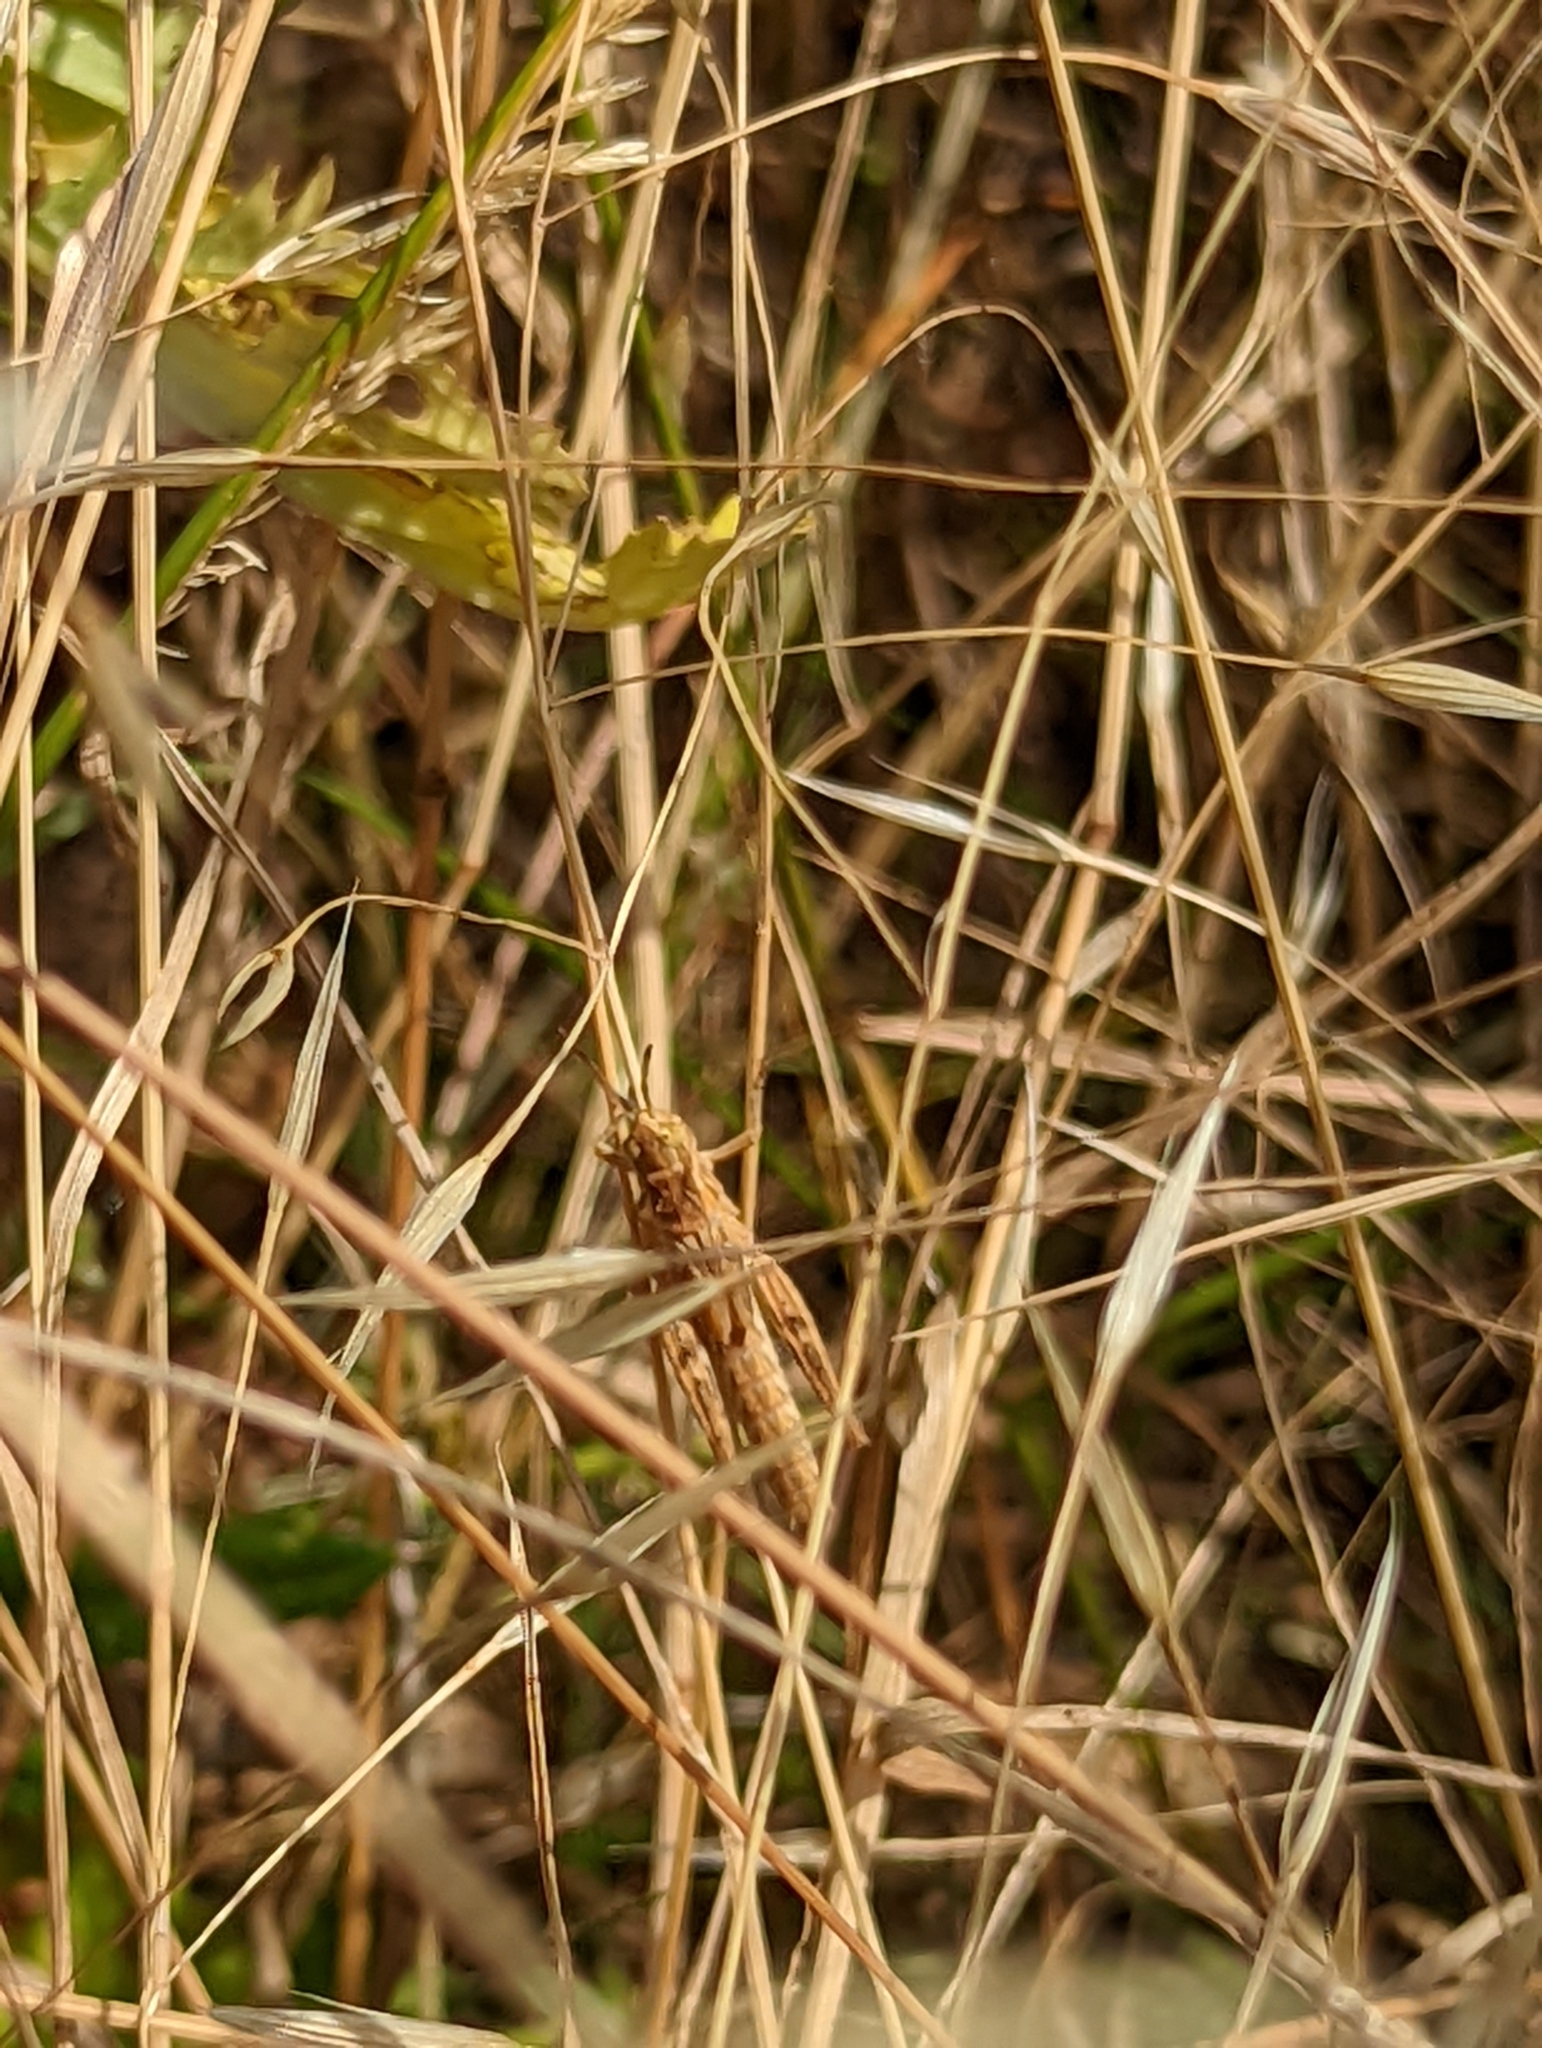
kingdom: Animalia
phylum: Arthropoda
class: Insecta
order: Orthoptera
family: Acrididae
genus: Chorthippus
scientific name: Chorthippus brunneus
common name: Field grasshopper
